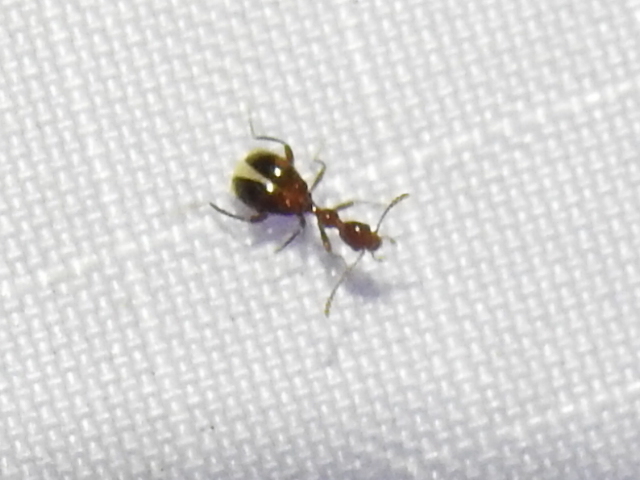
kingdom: Animalia
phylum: Arthropoda
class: Insecta
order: Coleoptera
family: Anthicidae
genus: Acanthinus
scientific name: Acanthinus
